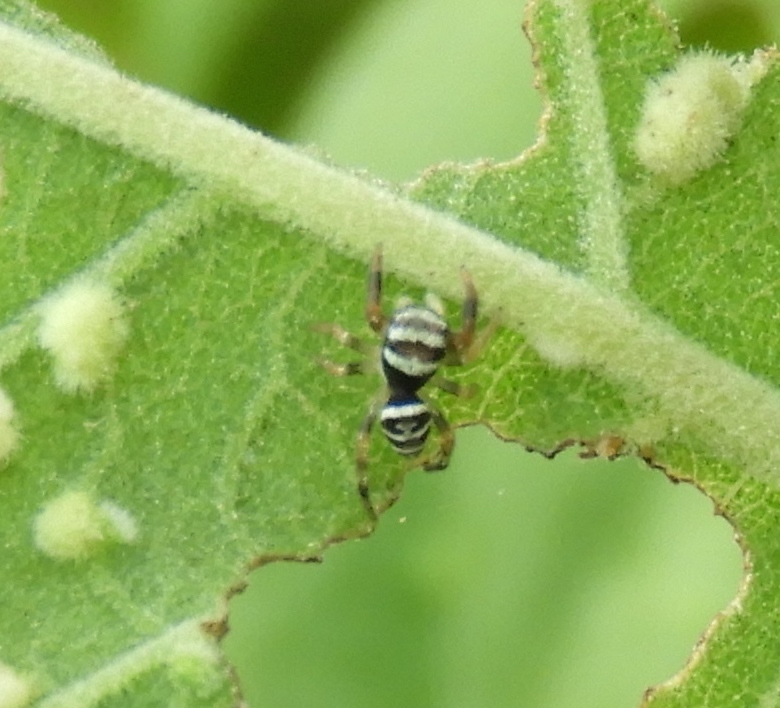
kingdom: Animalia
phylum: Arthropoda
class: Arachnida
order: Araneae
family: Salticidae
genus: Sassacus
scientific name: Sassacus
